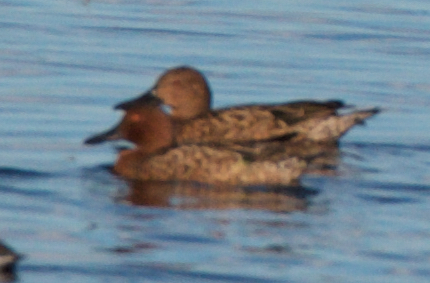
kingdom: Animalia
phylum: Chordata
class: Aves
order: Anseriformes
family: Anatidae
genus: Spatula
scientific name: Spatula cyanoptera
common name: Cinnamon teal
